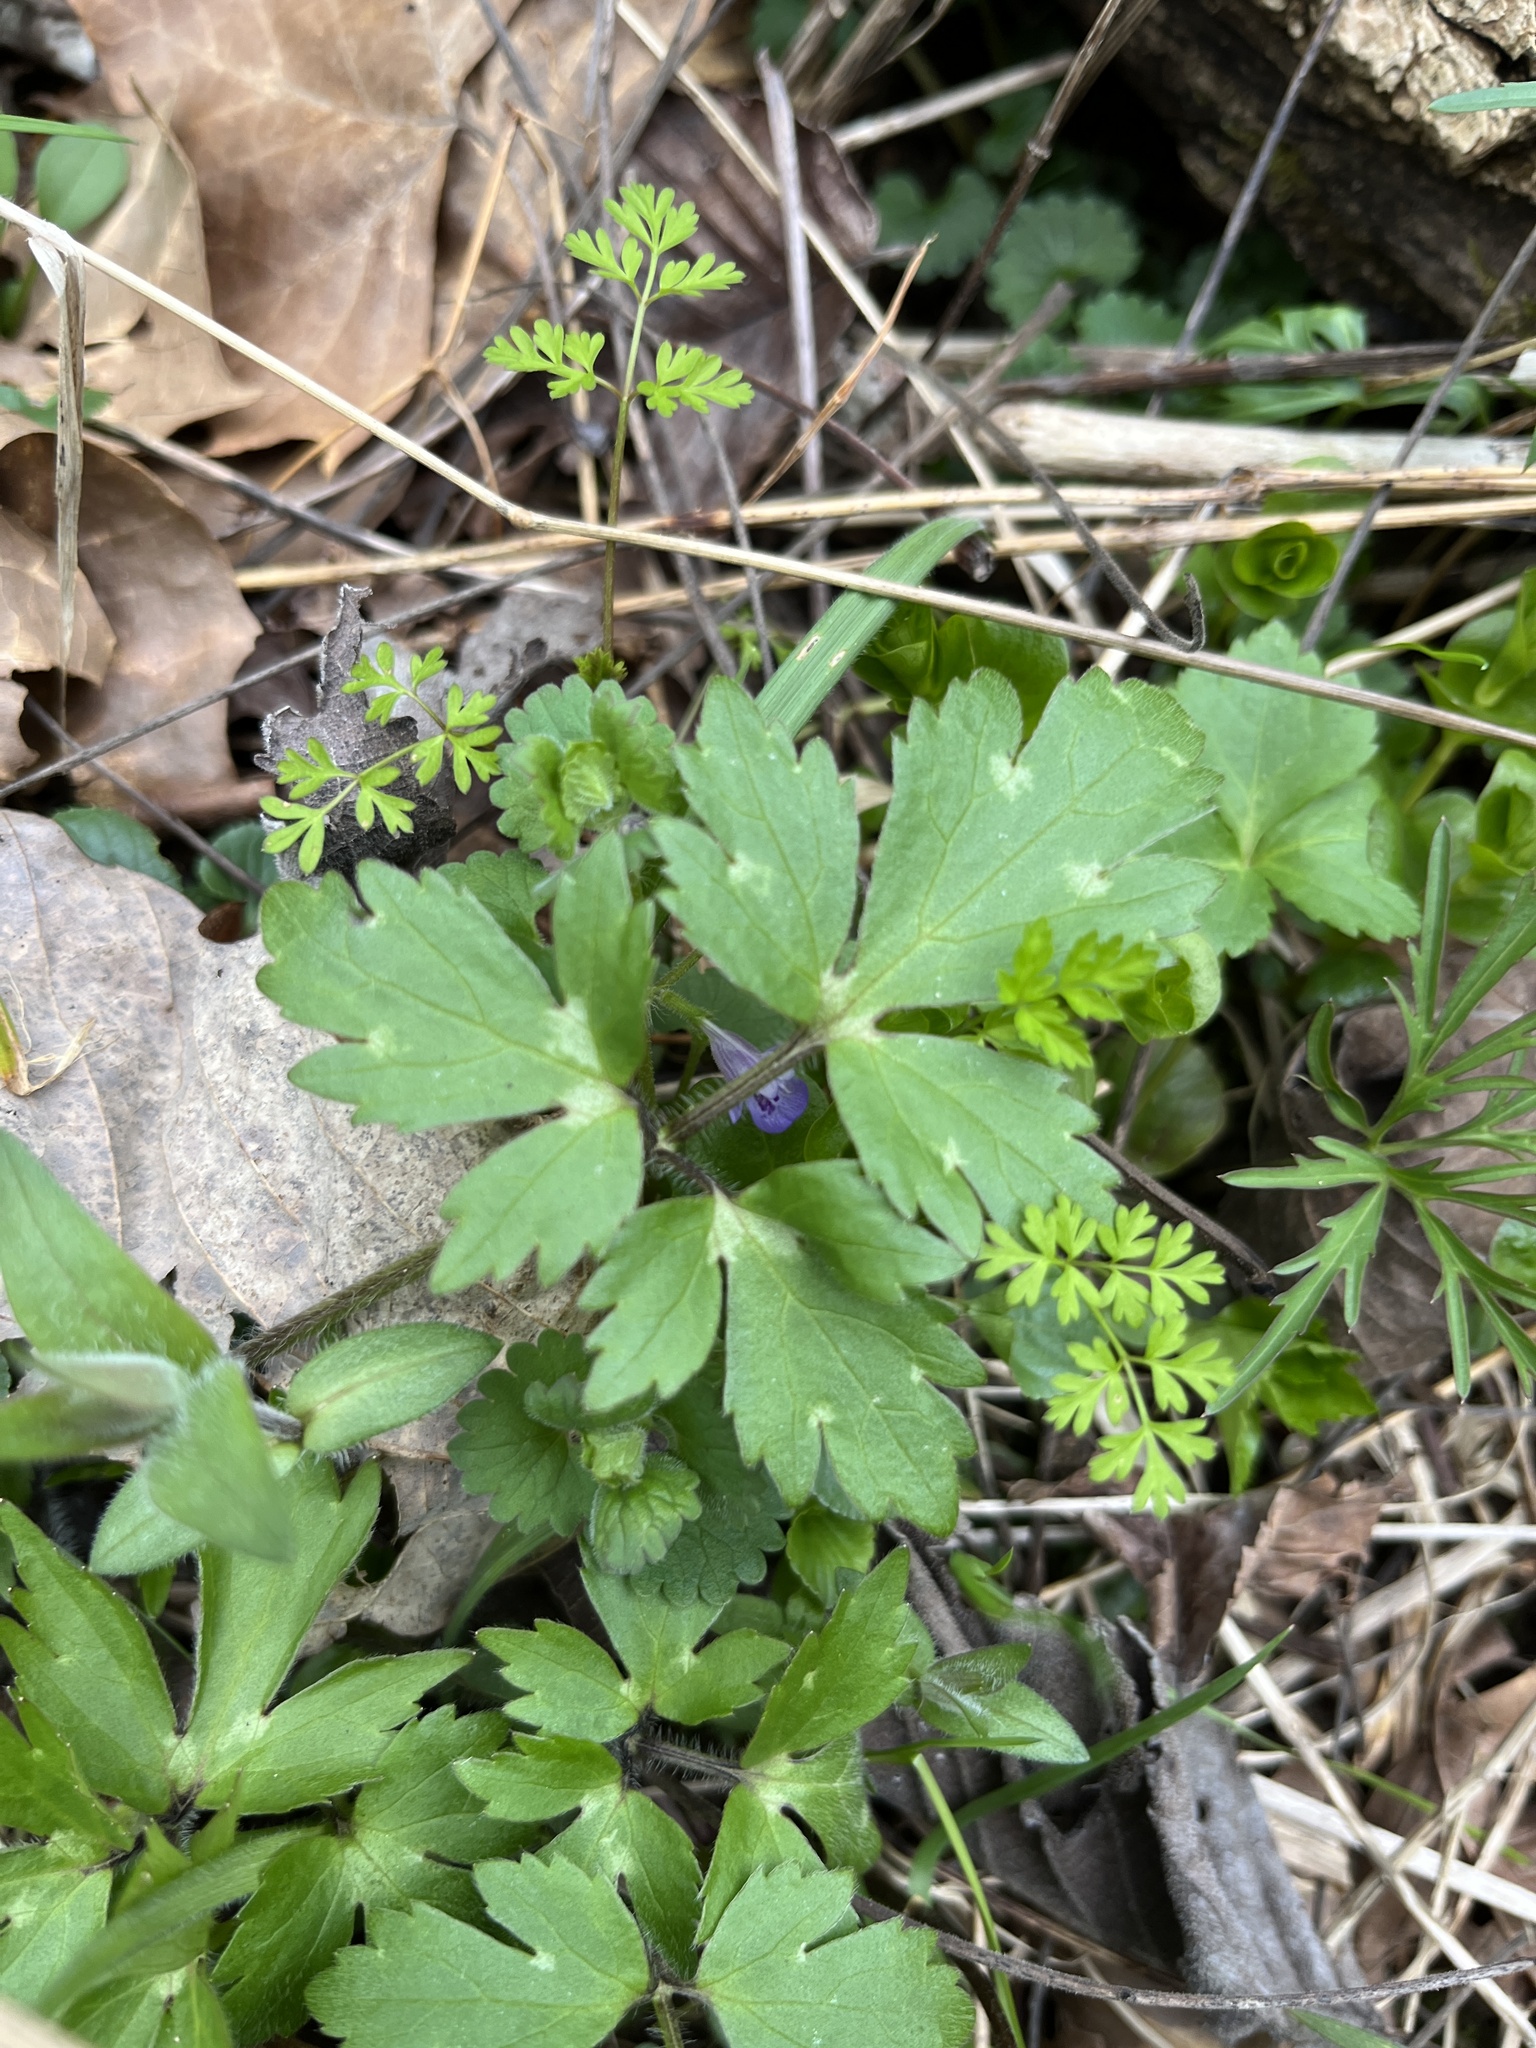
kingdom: Plantae
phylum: Tracheophyta
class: Magnoliopsida
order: Boraginales
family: Hydrophyllaceae
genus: Phacelia
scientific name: Phacelia bipinnatifida
